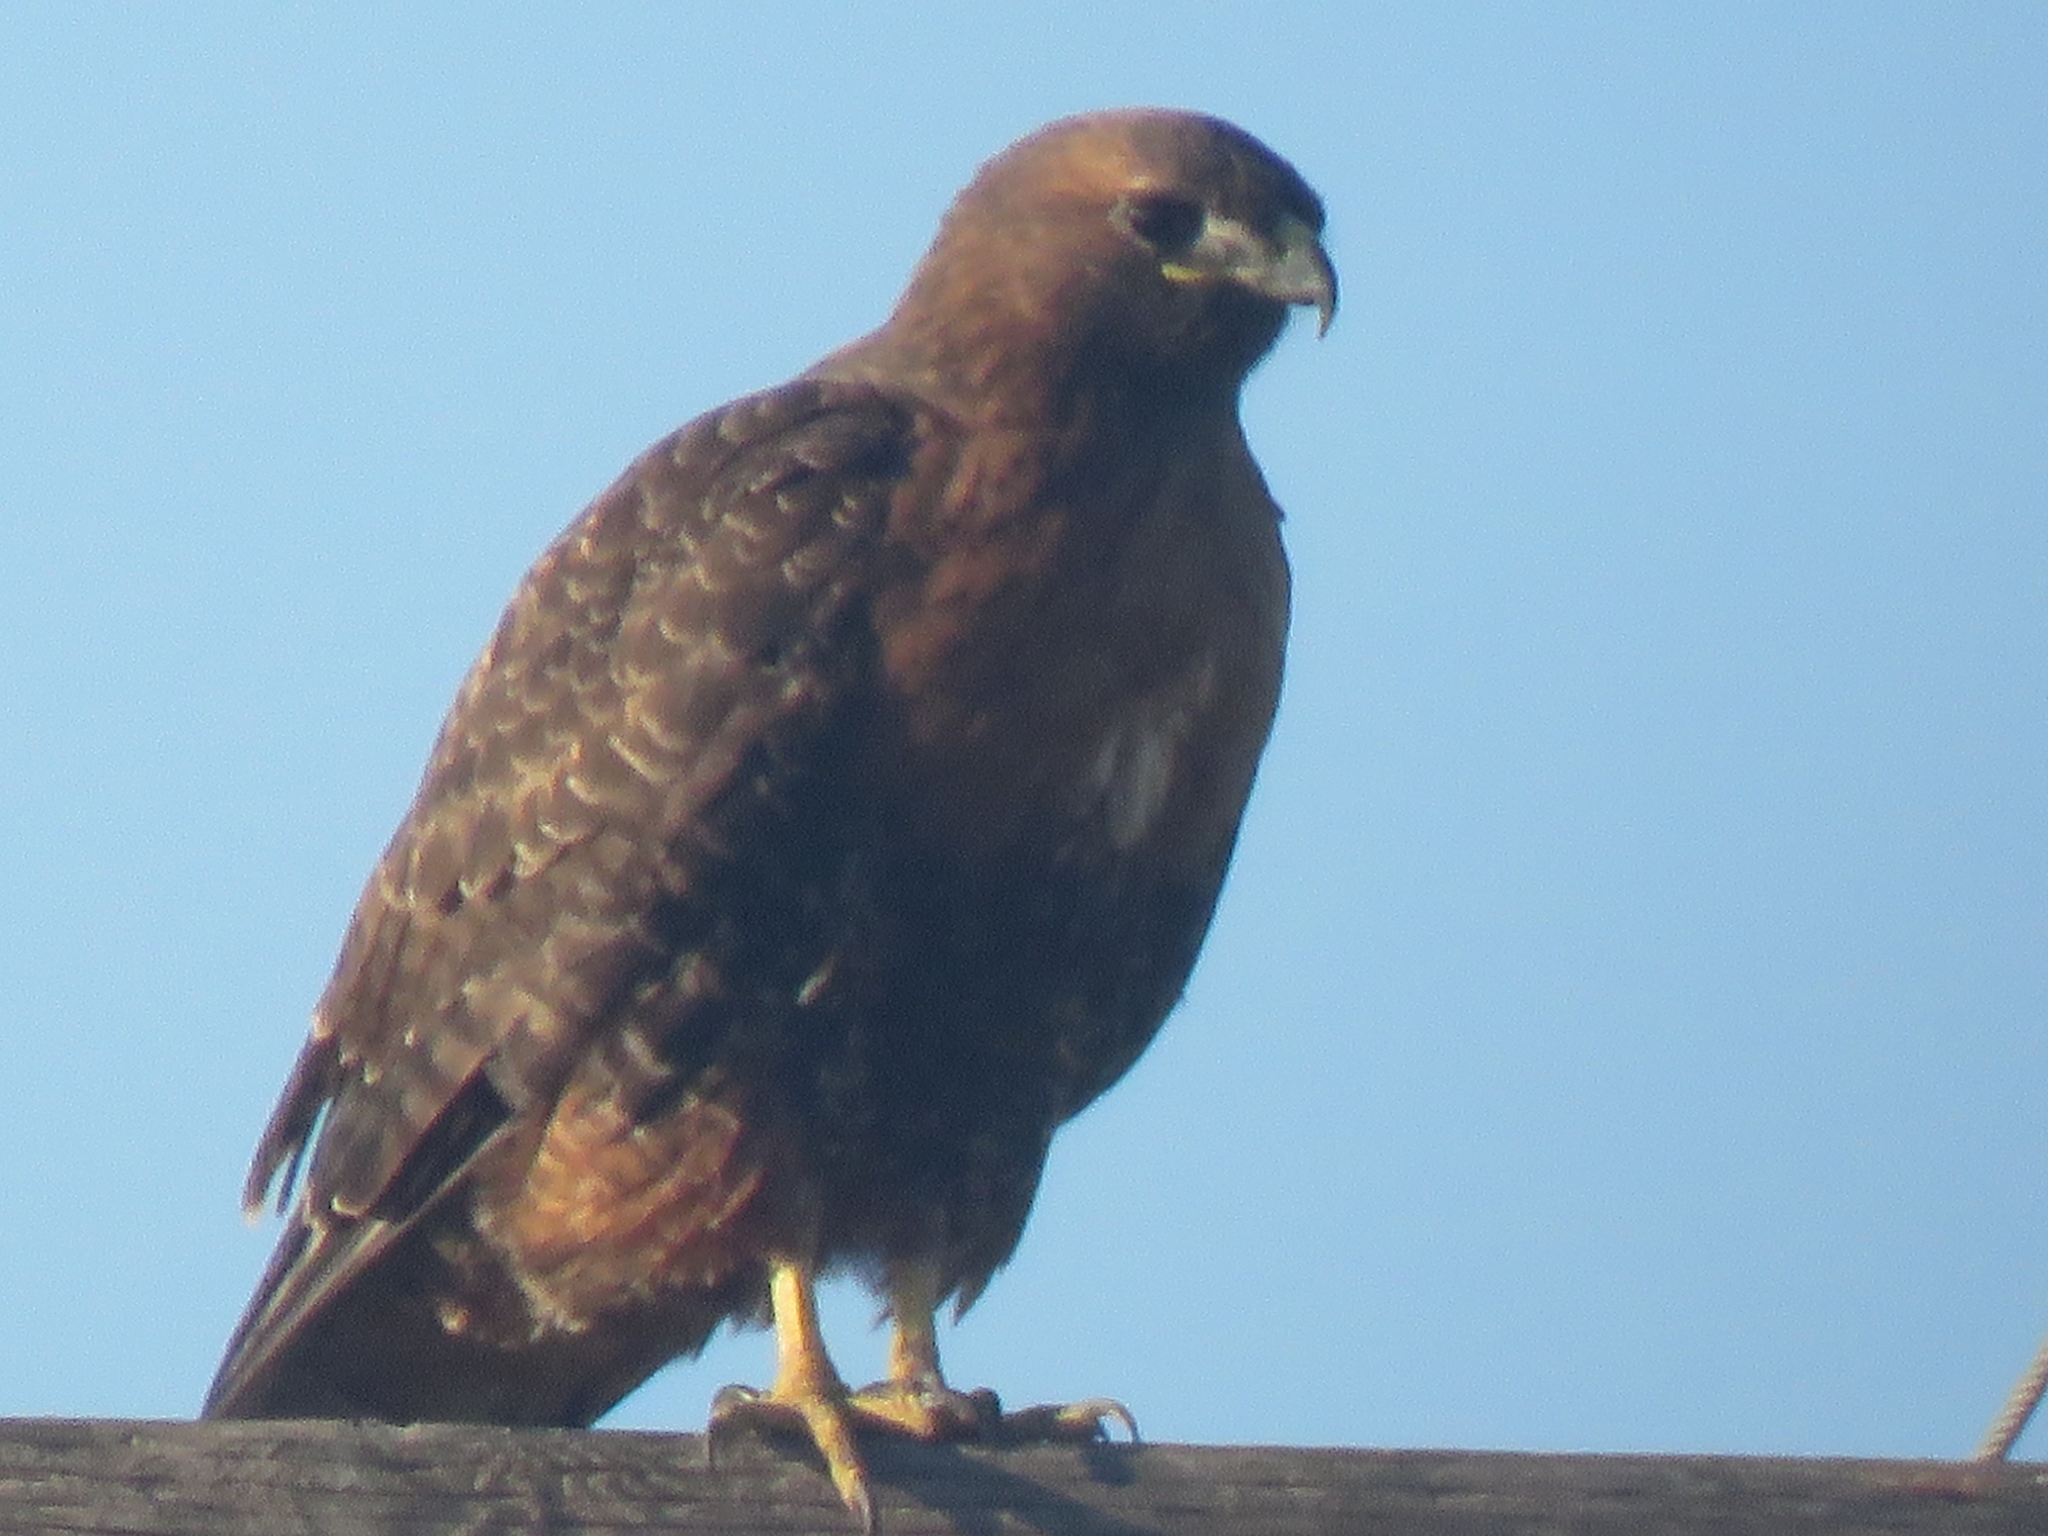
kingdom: Animalia
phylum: Chordata
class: Aves
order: Accipitriformes
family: Accipitridae
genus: Buteo
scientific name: Buteo jamaicensis
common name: Red-tailed hawk
